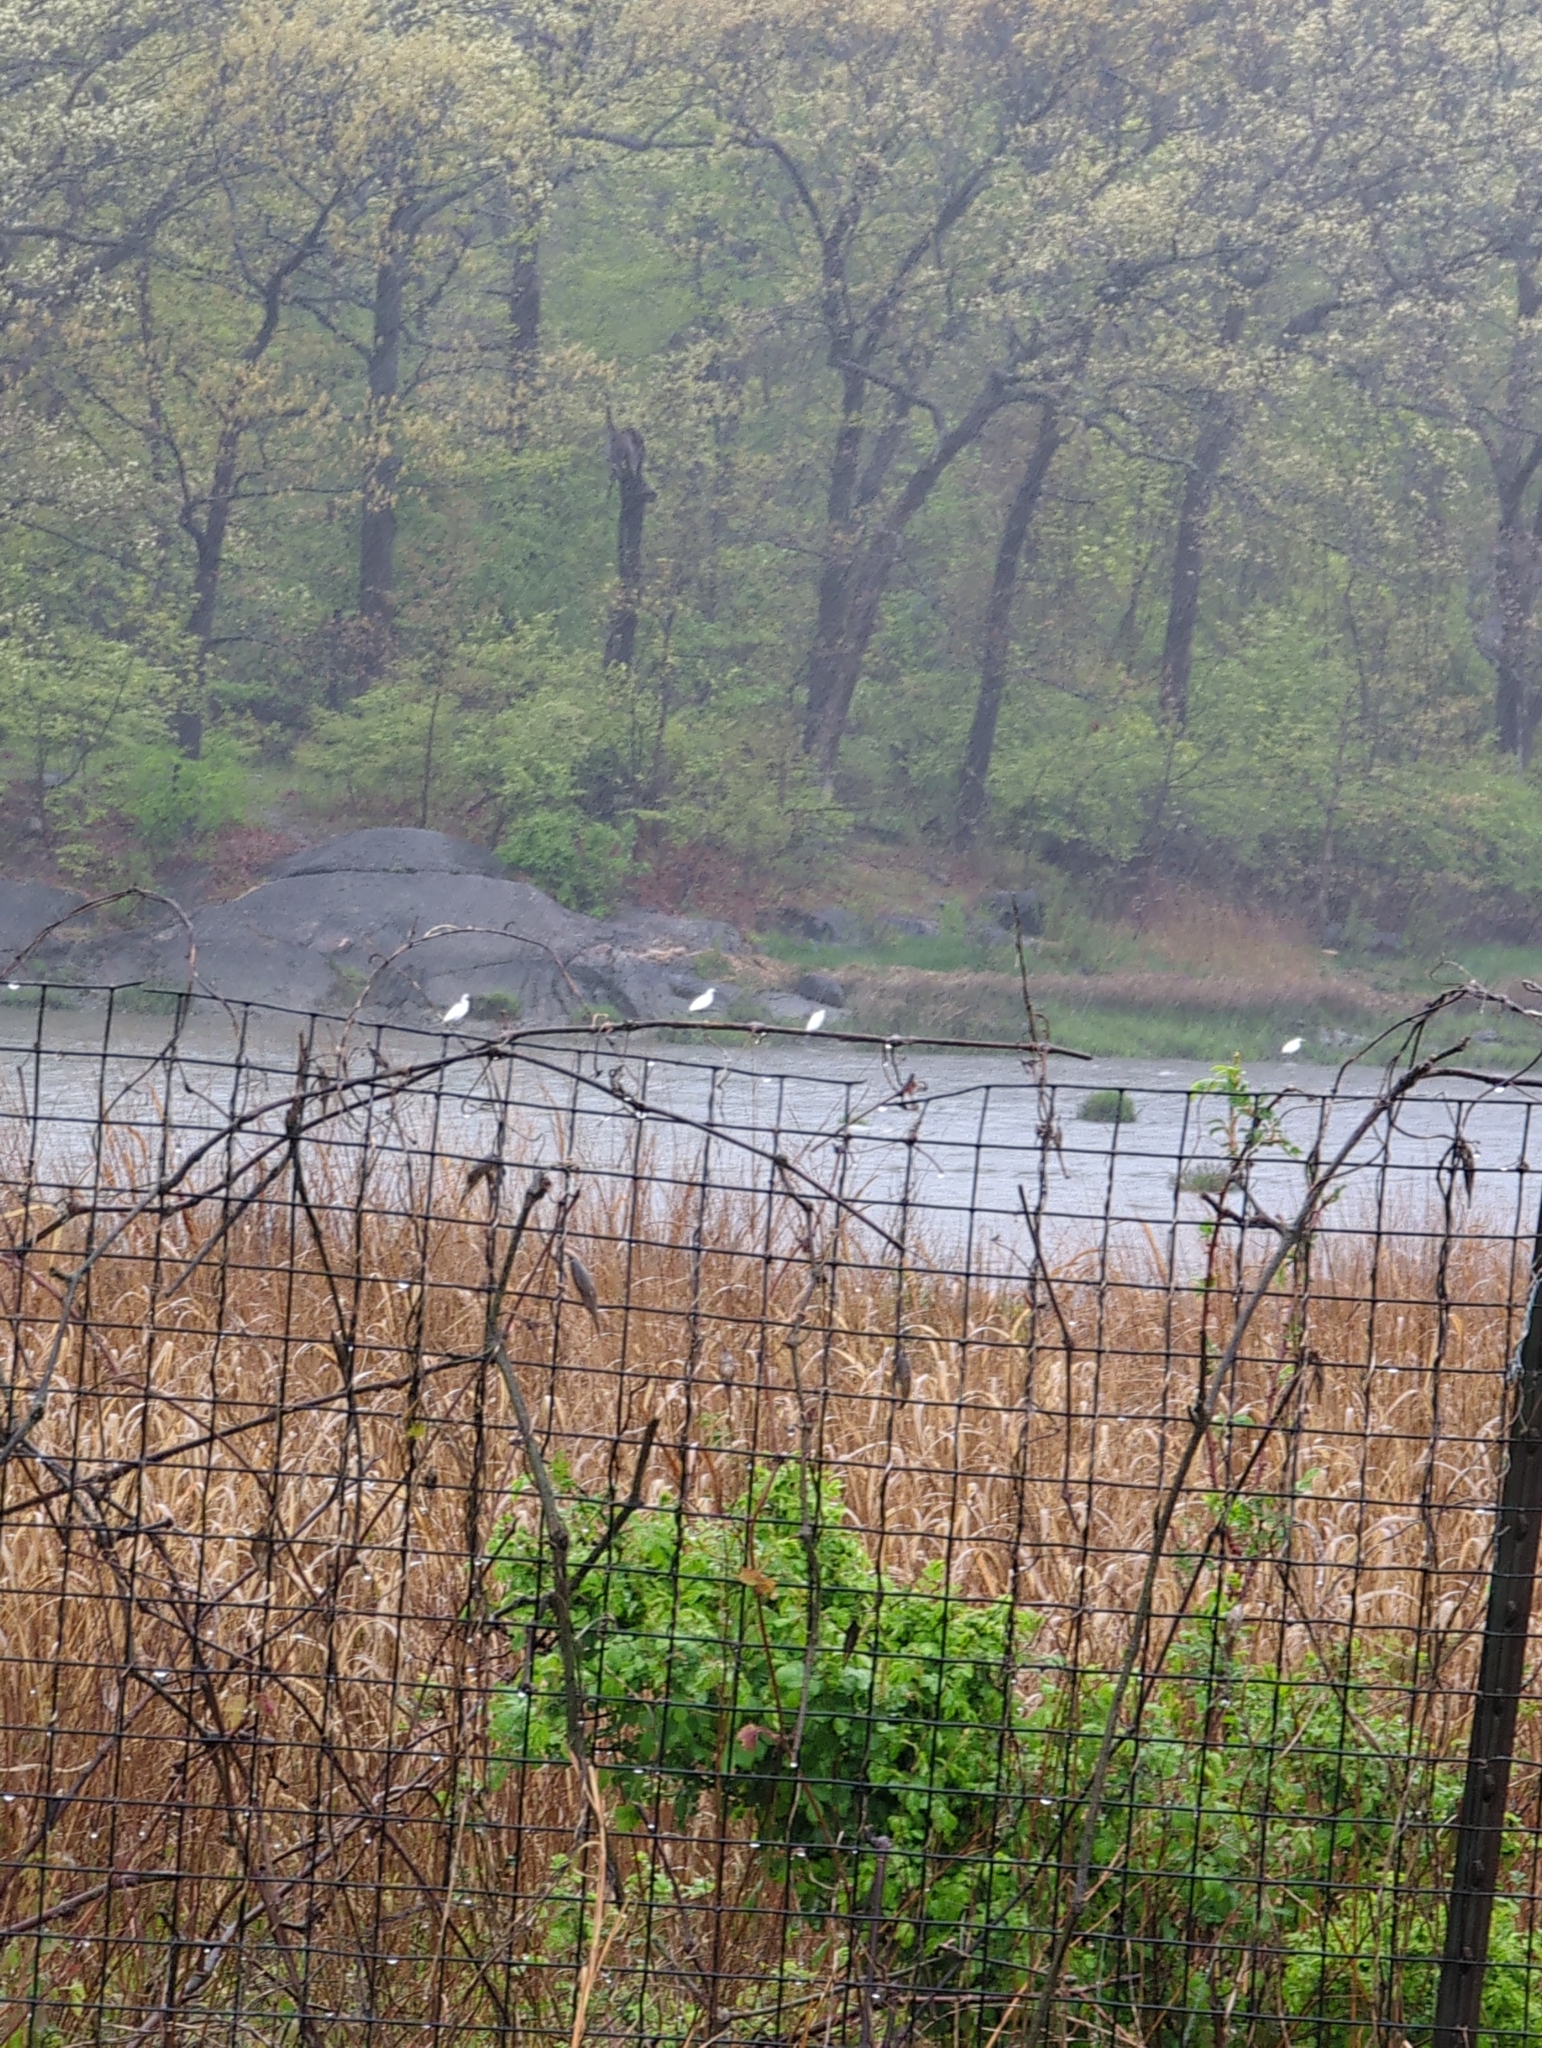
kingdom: Animalia
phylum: Chordata
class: Aves
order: Pelecaniformes
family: Ardeidae
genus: Ardea
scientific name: Ardea alba
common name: Great egret
